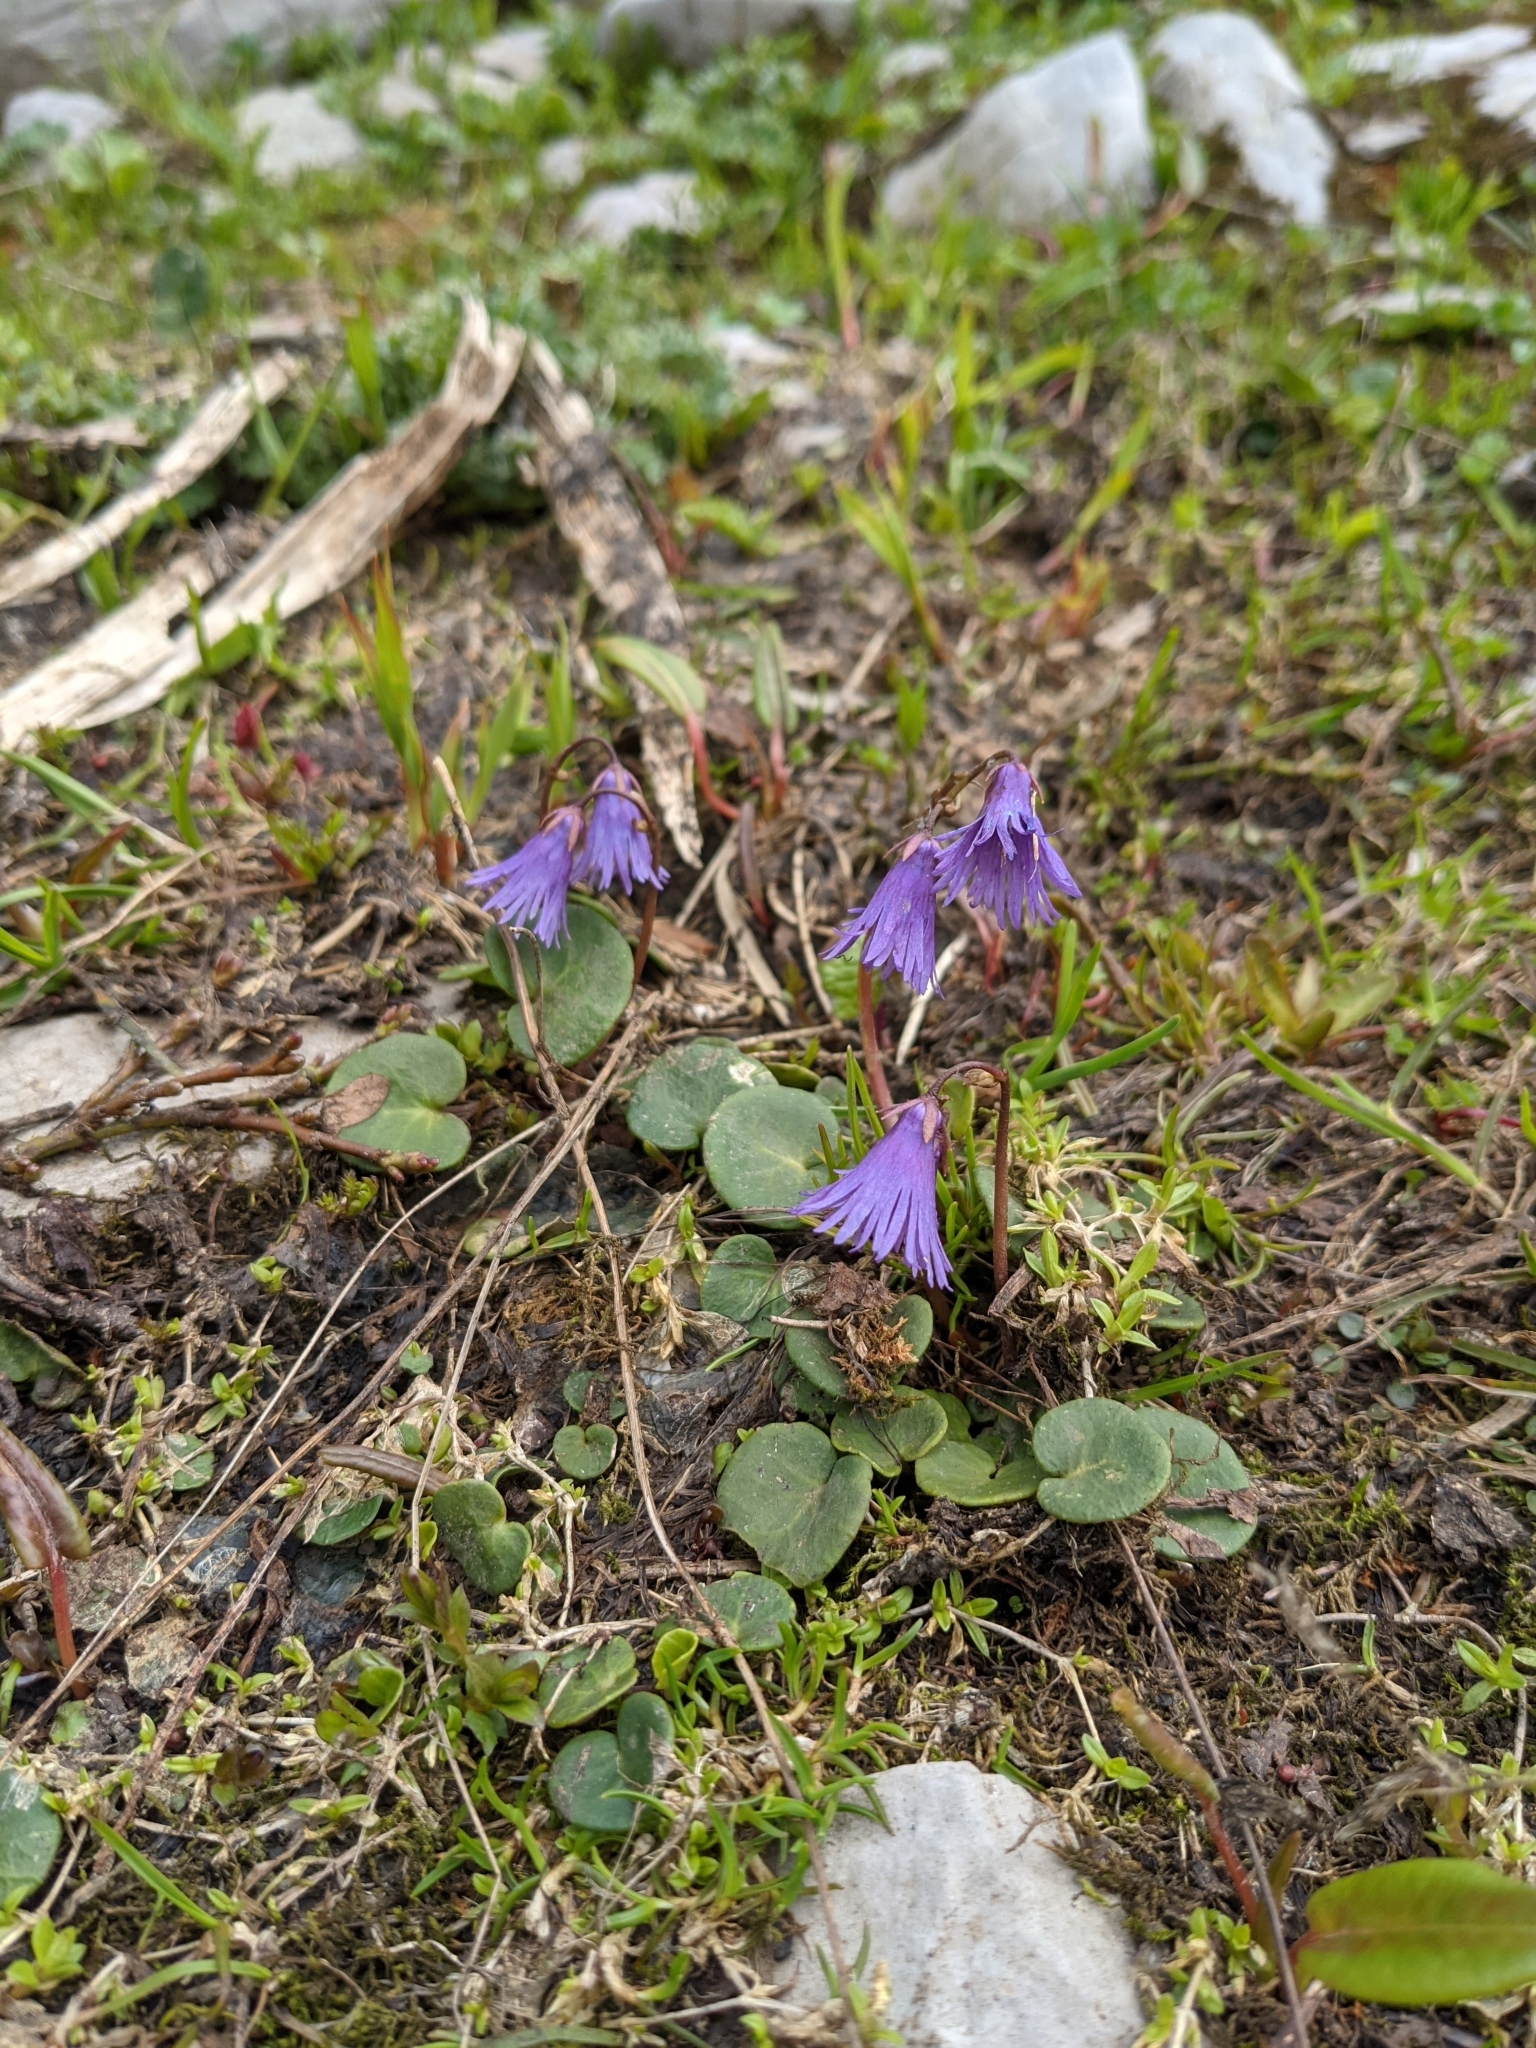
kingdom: Plantae
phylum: Tracheophyta
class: Magnoliopsida
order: Ericales
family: Primulaceae
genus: Soldanella
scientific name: Soldanella alpina
